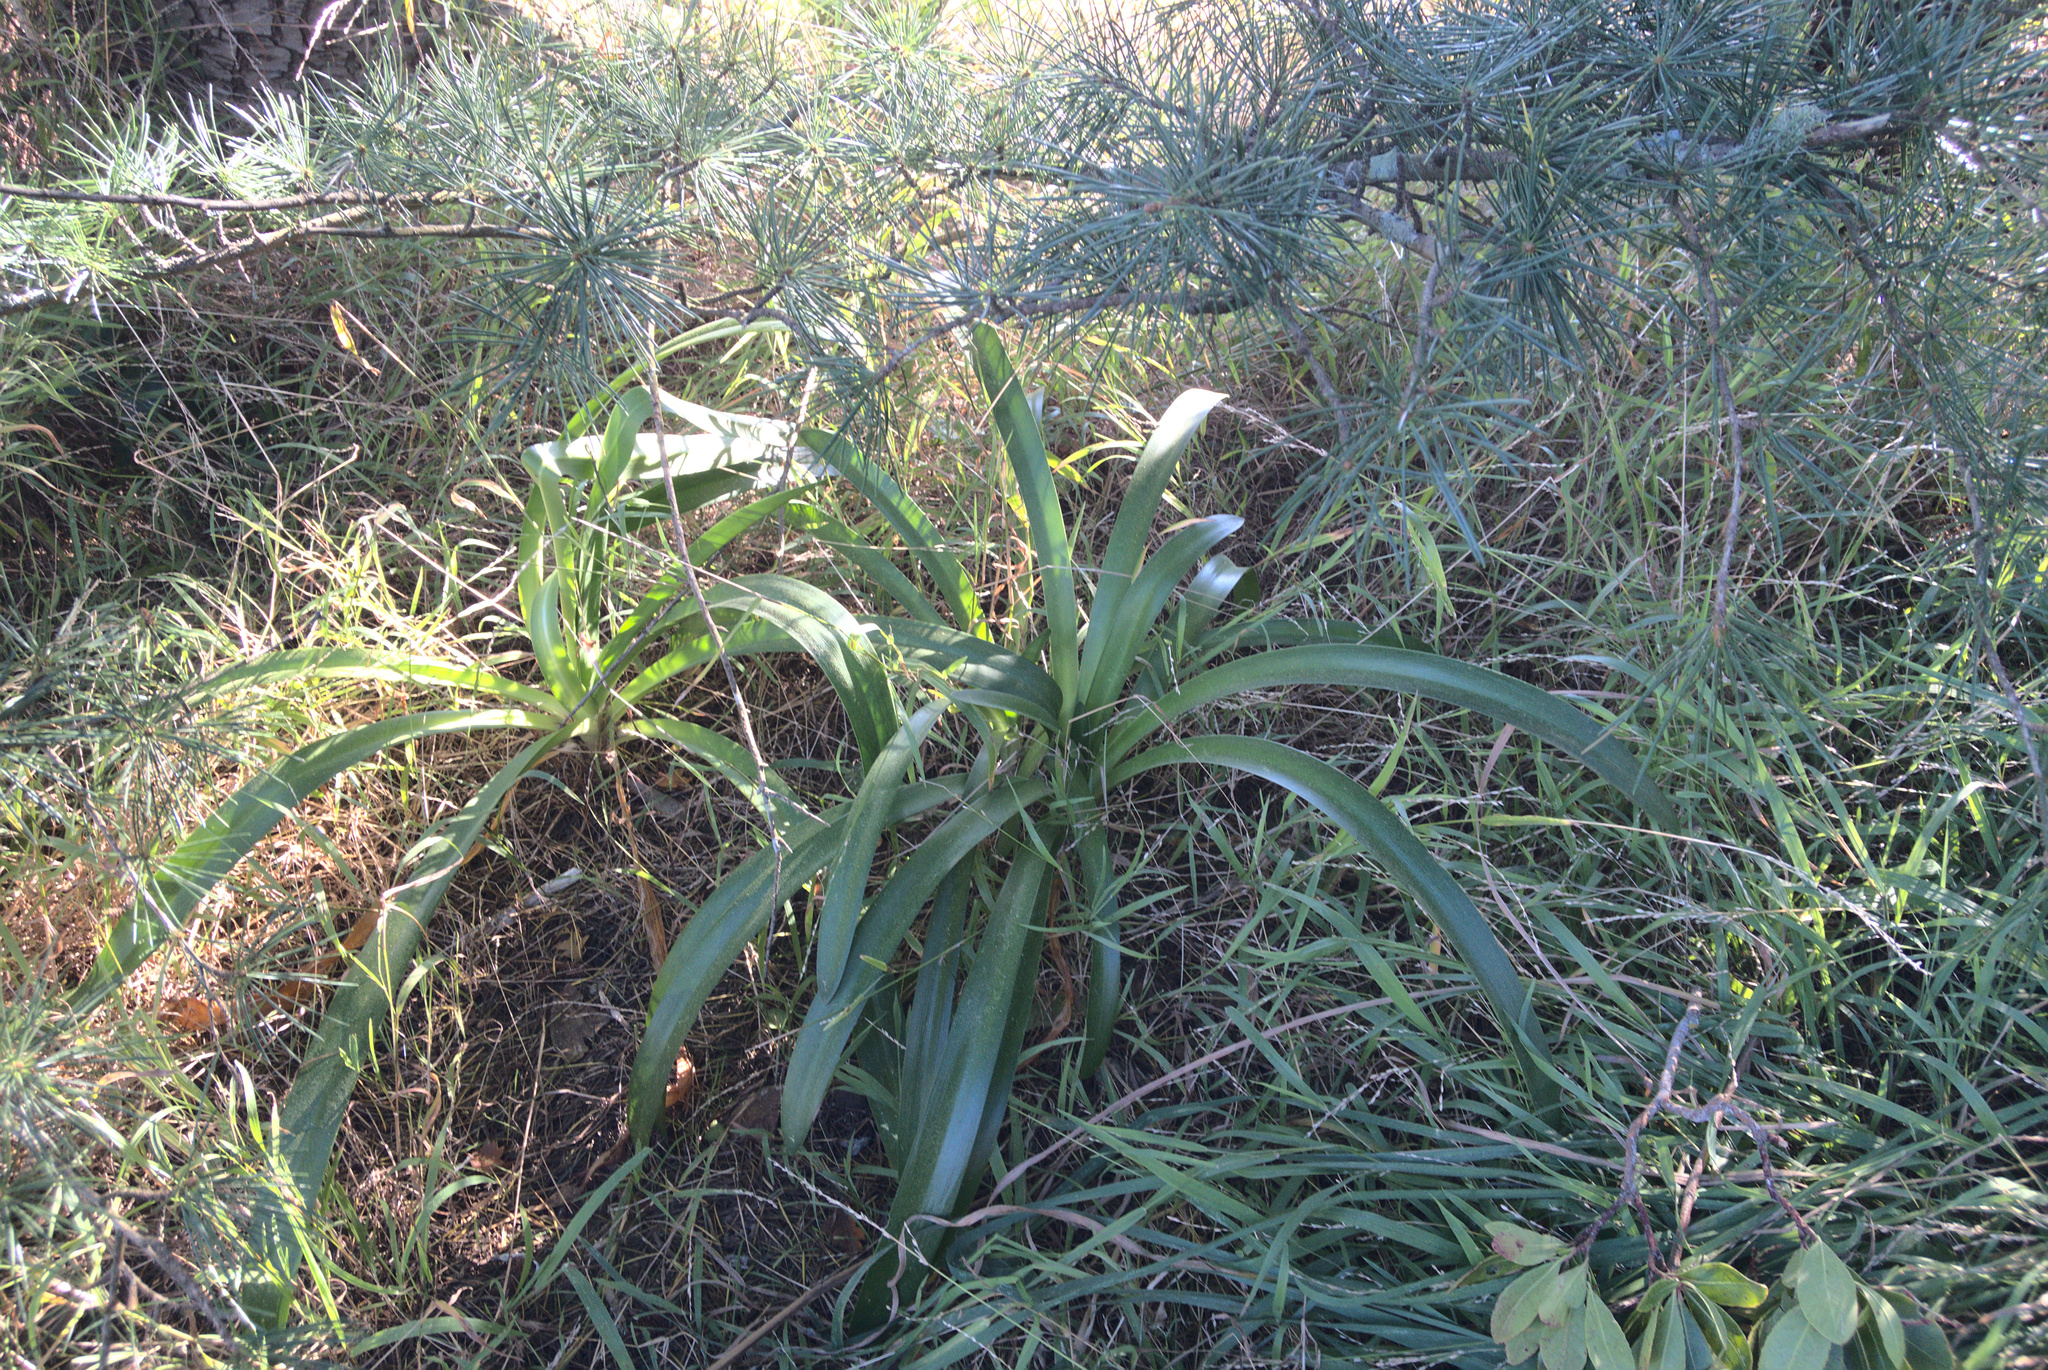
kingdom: Plantae
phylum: Tracheophyta
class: Liliopsida
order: Asparagales
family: Amaryllidaceae
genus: Agapanthus
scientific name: Agapanthus praecox
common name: African-lily
